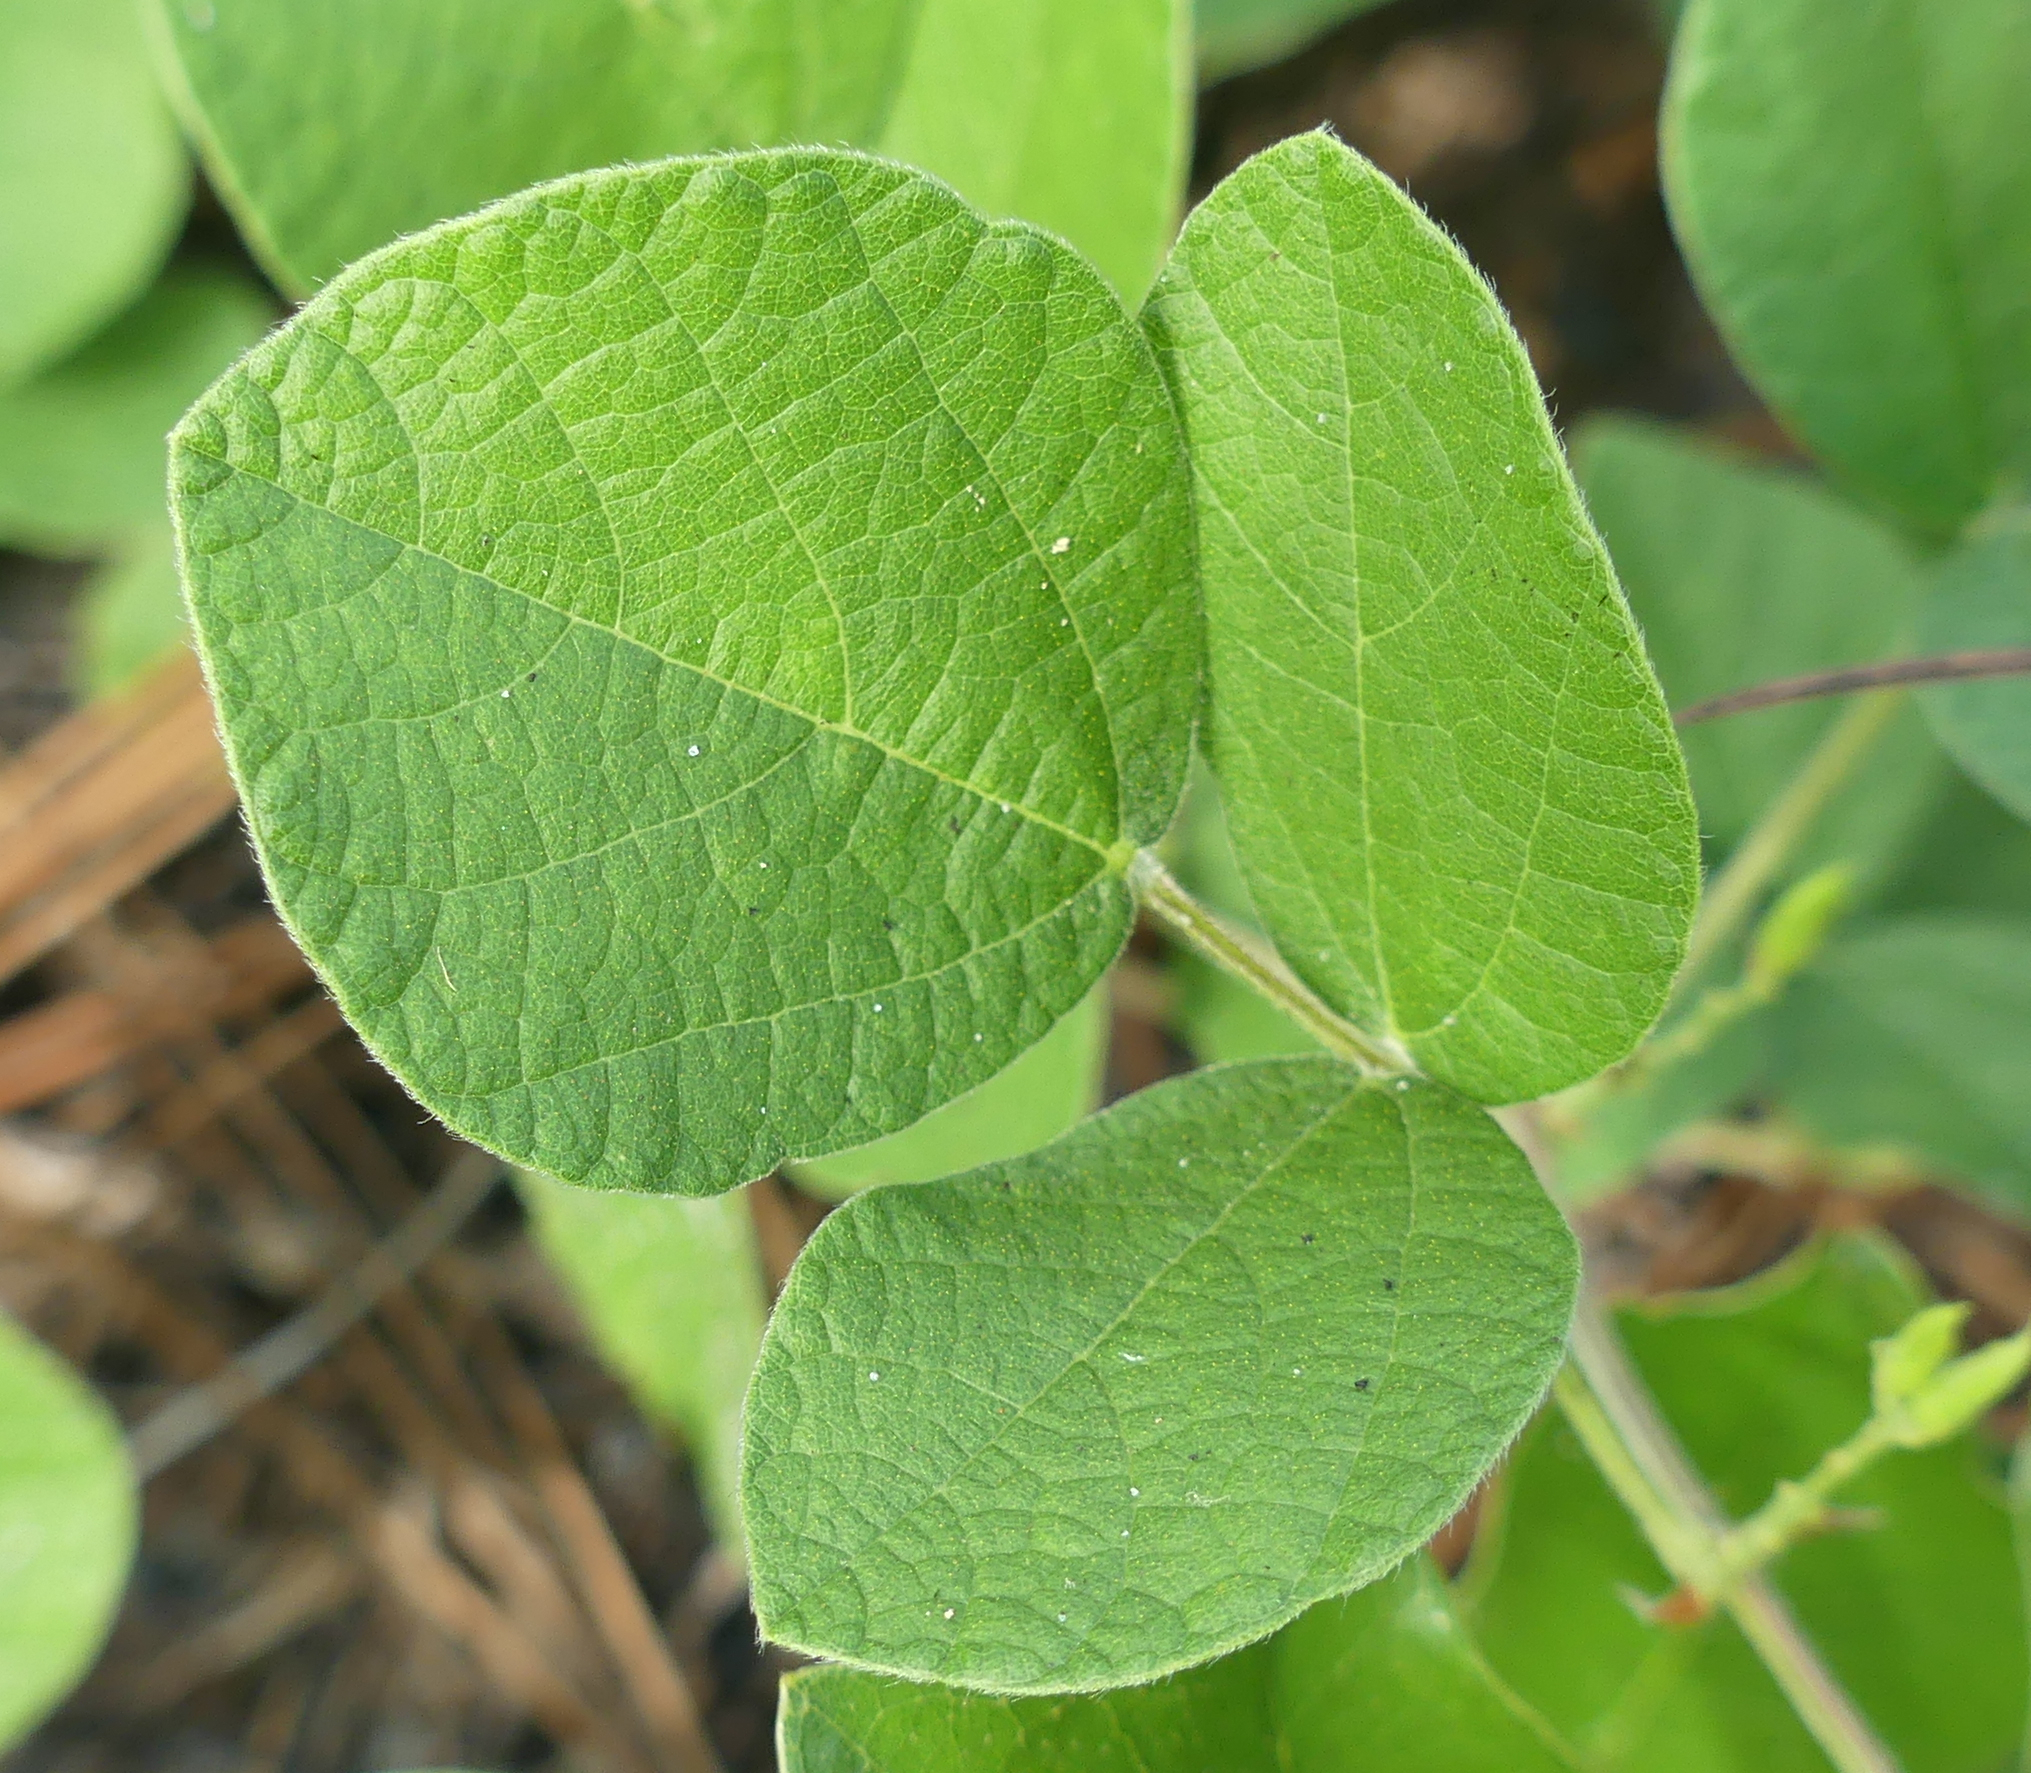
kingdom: Plantae
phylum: Tracheophyta
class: Magnoliopsida
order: Fabales
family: Fabaceae
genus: Rhynchosia
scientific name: Rhynchosia difformis
